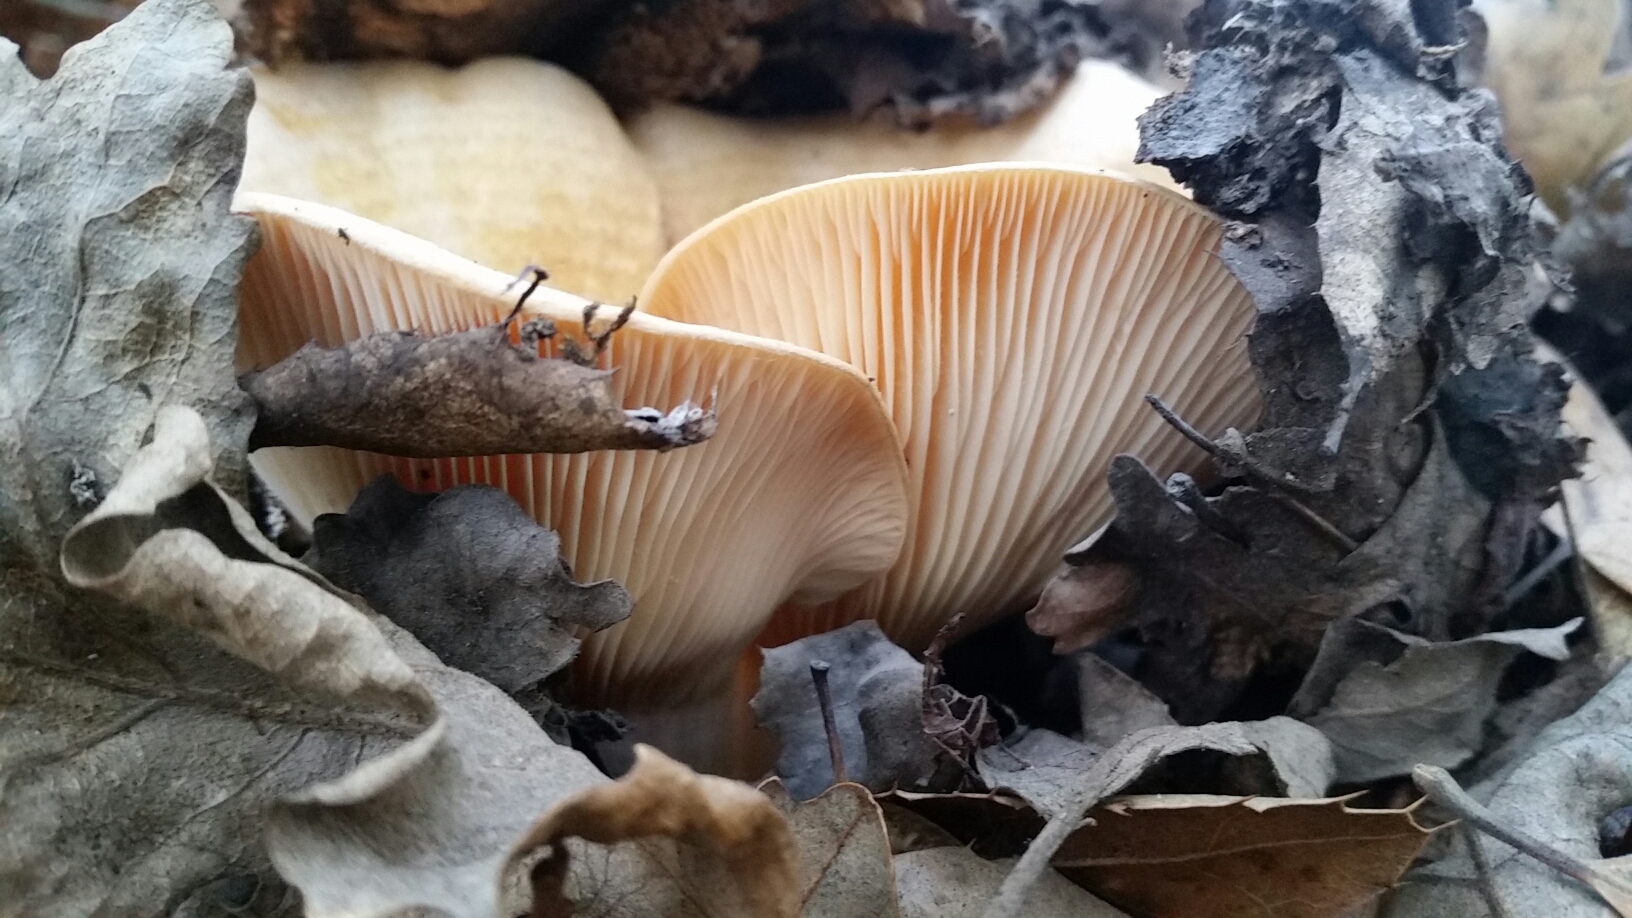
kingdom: Fungi
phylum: Basidiomycota
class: Agaricomycetes
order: Russulales
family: Russulaceae
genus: Lactarius
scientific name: Lactarius alnicola
